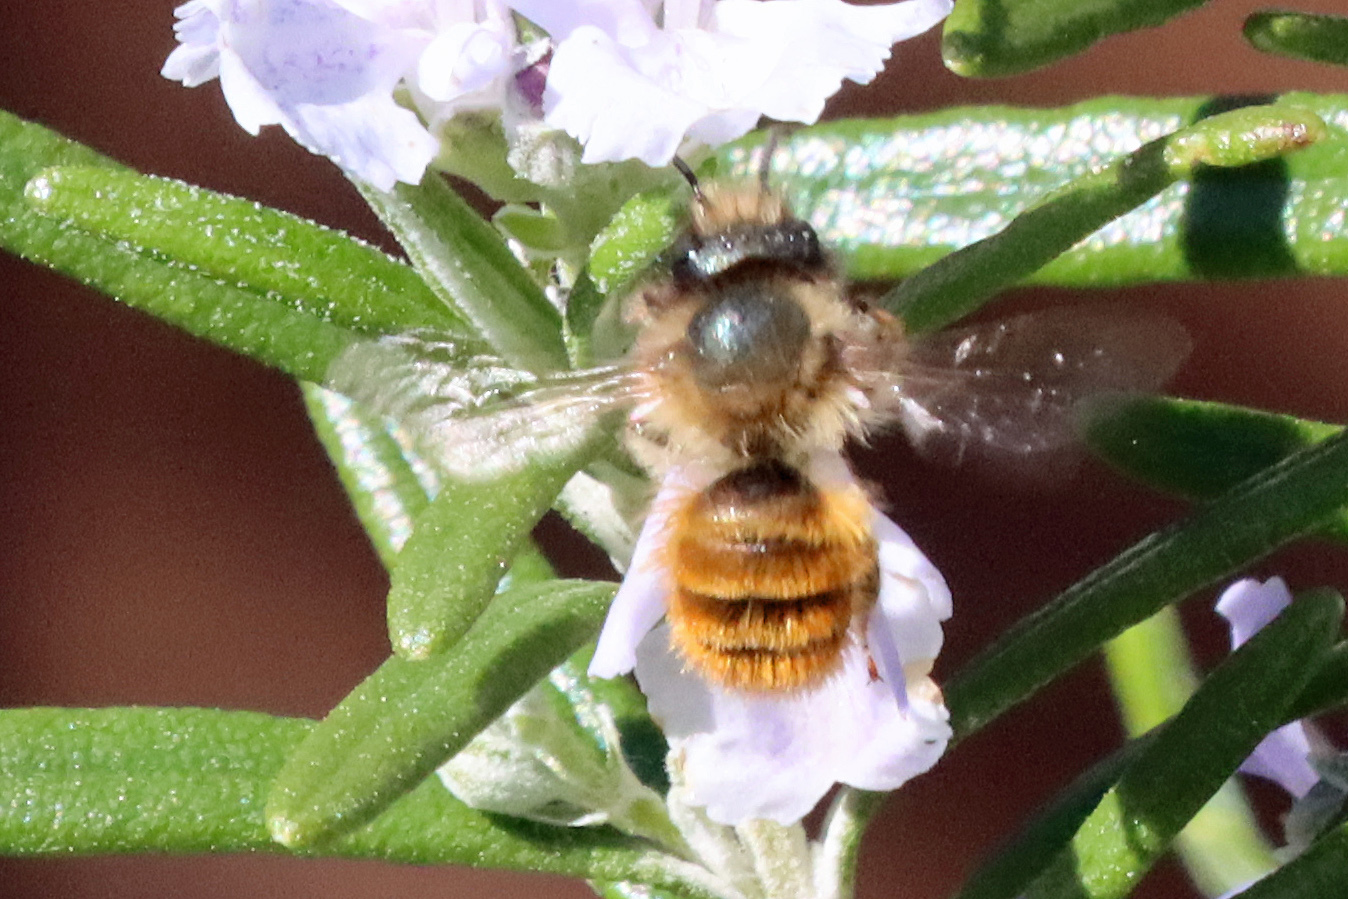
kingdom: Animalia
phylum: Arthropoda
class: Insecta
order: Hymenoptera
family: Megachilidae
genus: Osmia
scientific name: Osmia bicornis
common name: Red mason bee
